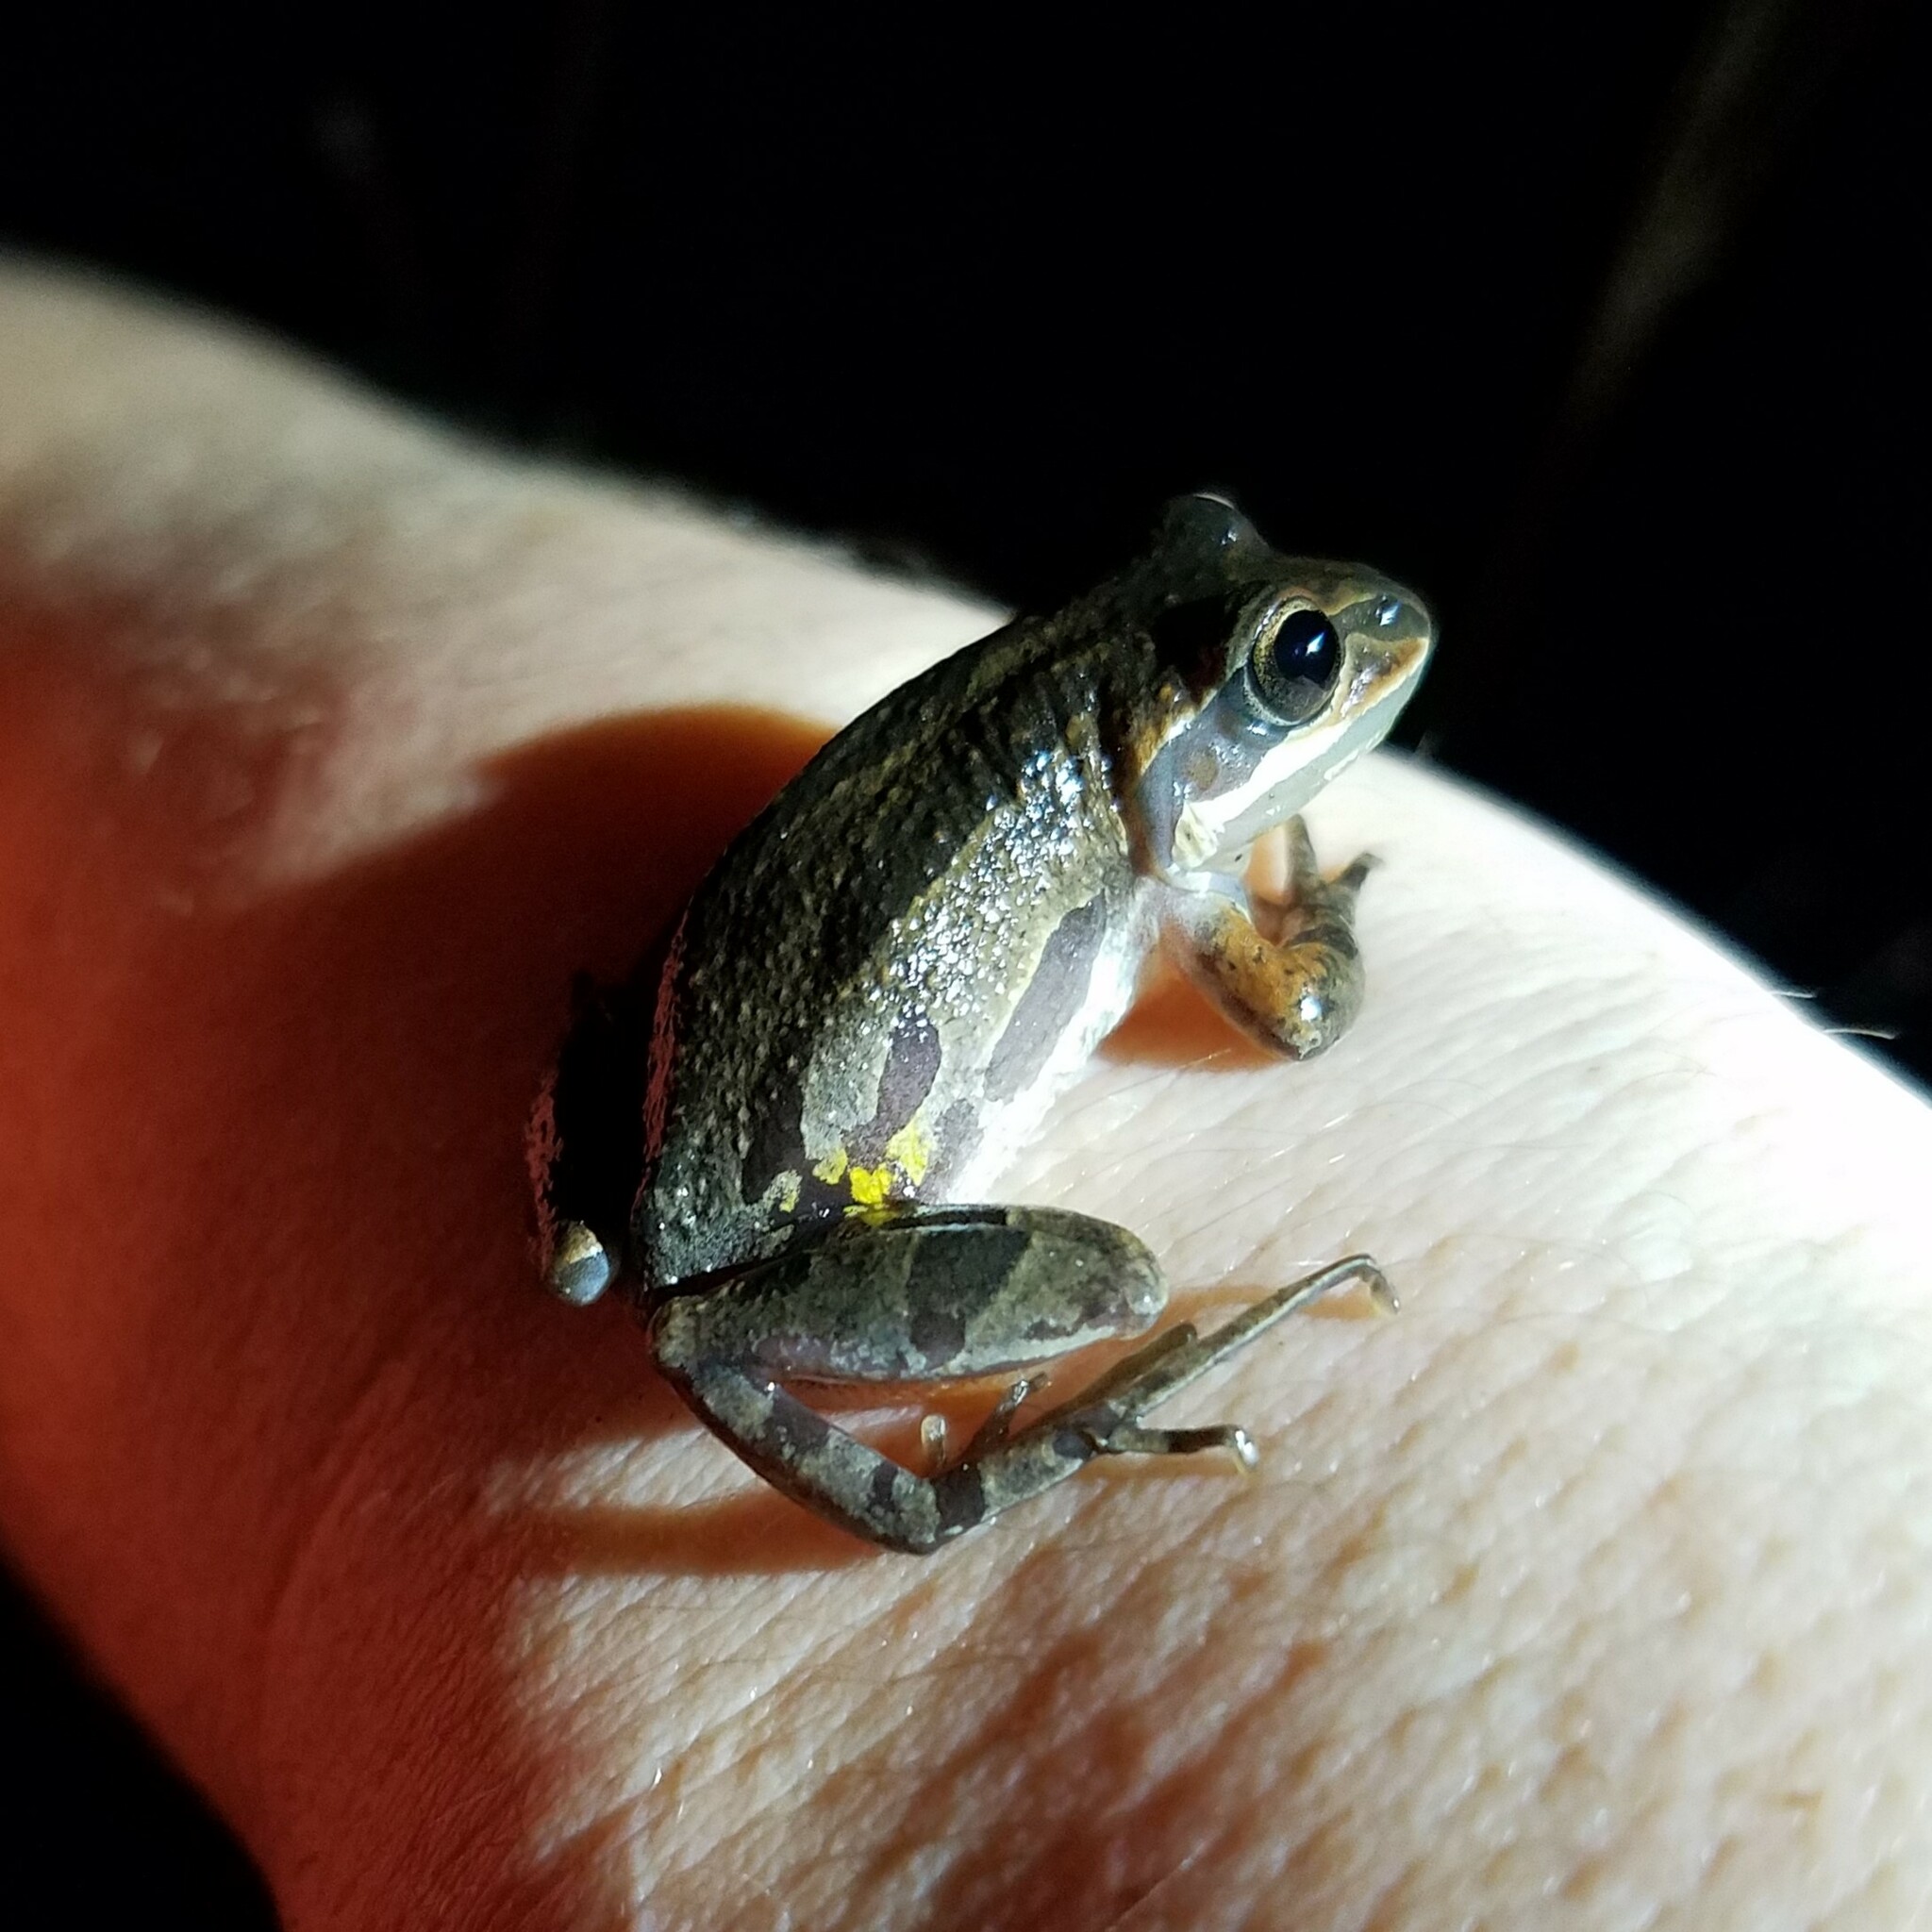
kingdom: Animalia
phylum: Chordata
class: Amphibia
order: Anura
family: Hylidae
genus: Pseudacris
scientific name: Pseudacris ornata
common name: Ornate chorus frog
